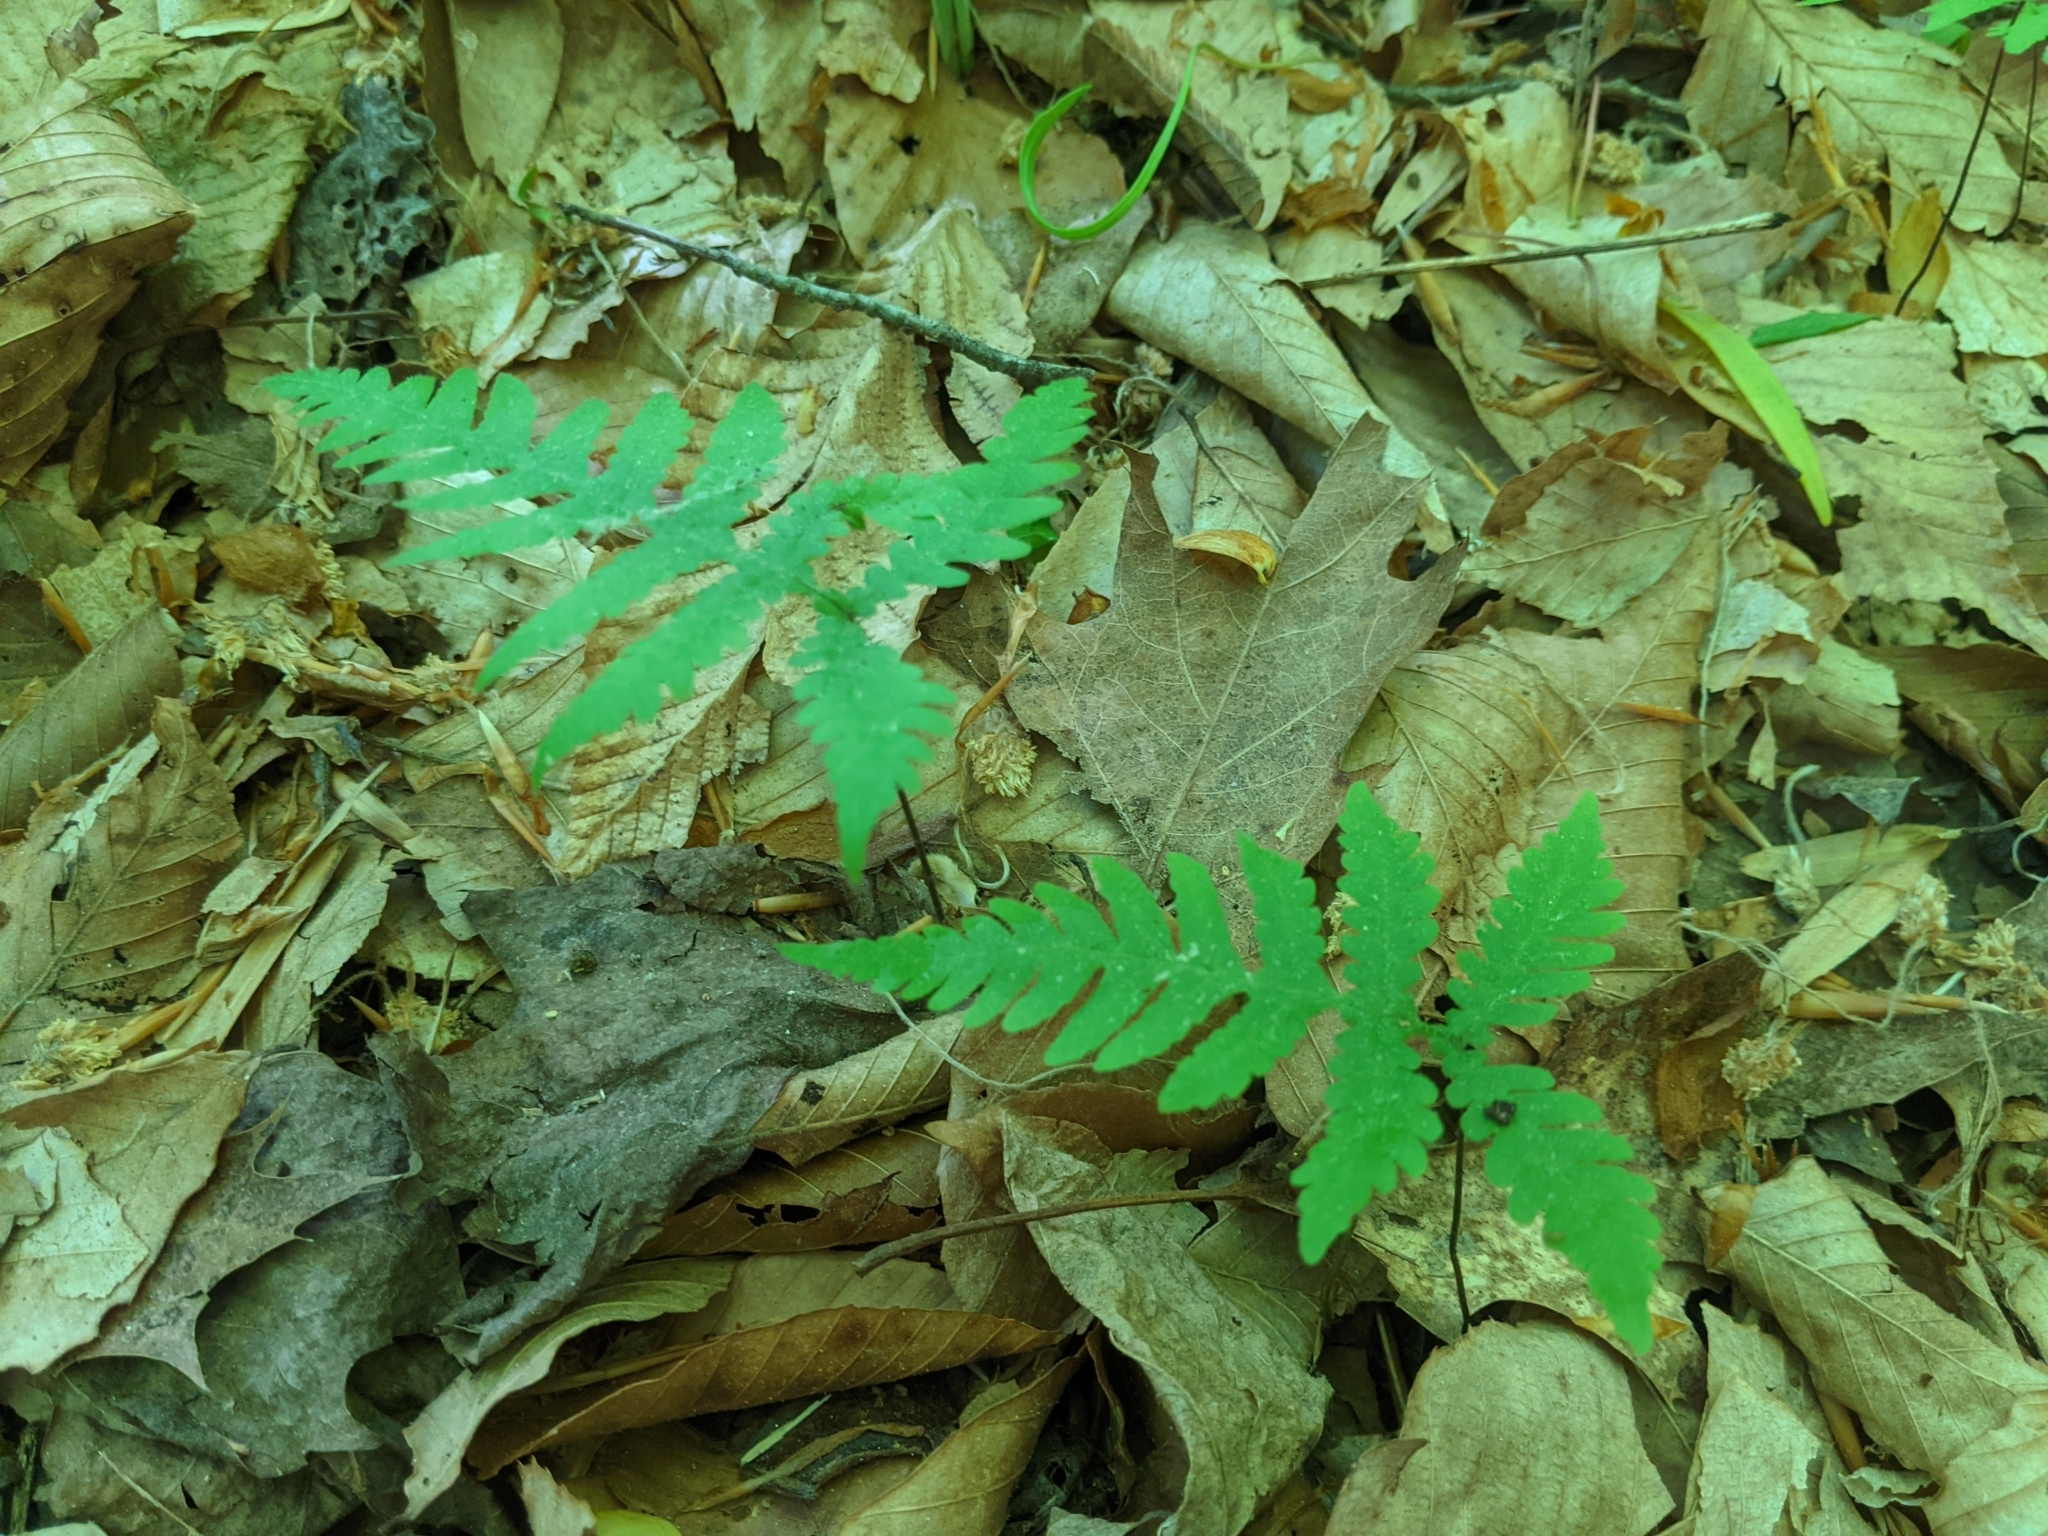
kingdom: Plantae
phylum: Tracheophyta
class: Polypodiopsida
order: Polypodiales
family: Thelypteridaceae
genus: Phegopteris
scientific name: Phegopteris hexagonoptera
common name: Broad beech fern
